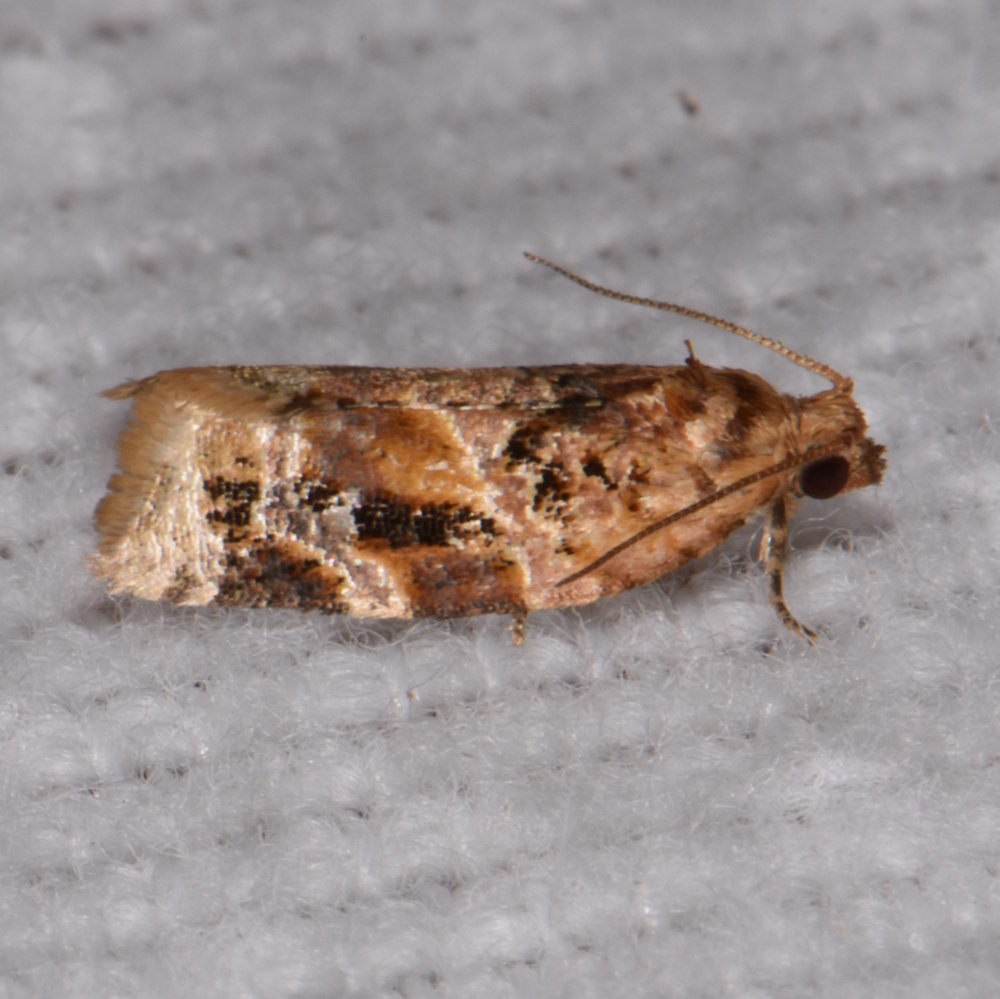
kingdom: Animalia
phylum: Arthropoda
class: Insecta
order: Lepidoptera
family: Tortricidae
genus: Argyrotaenia
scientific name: Argyrotaenia velutinana
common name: Red-banded leafroller moth
